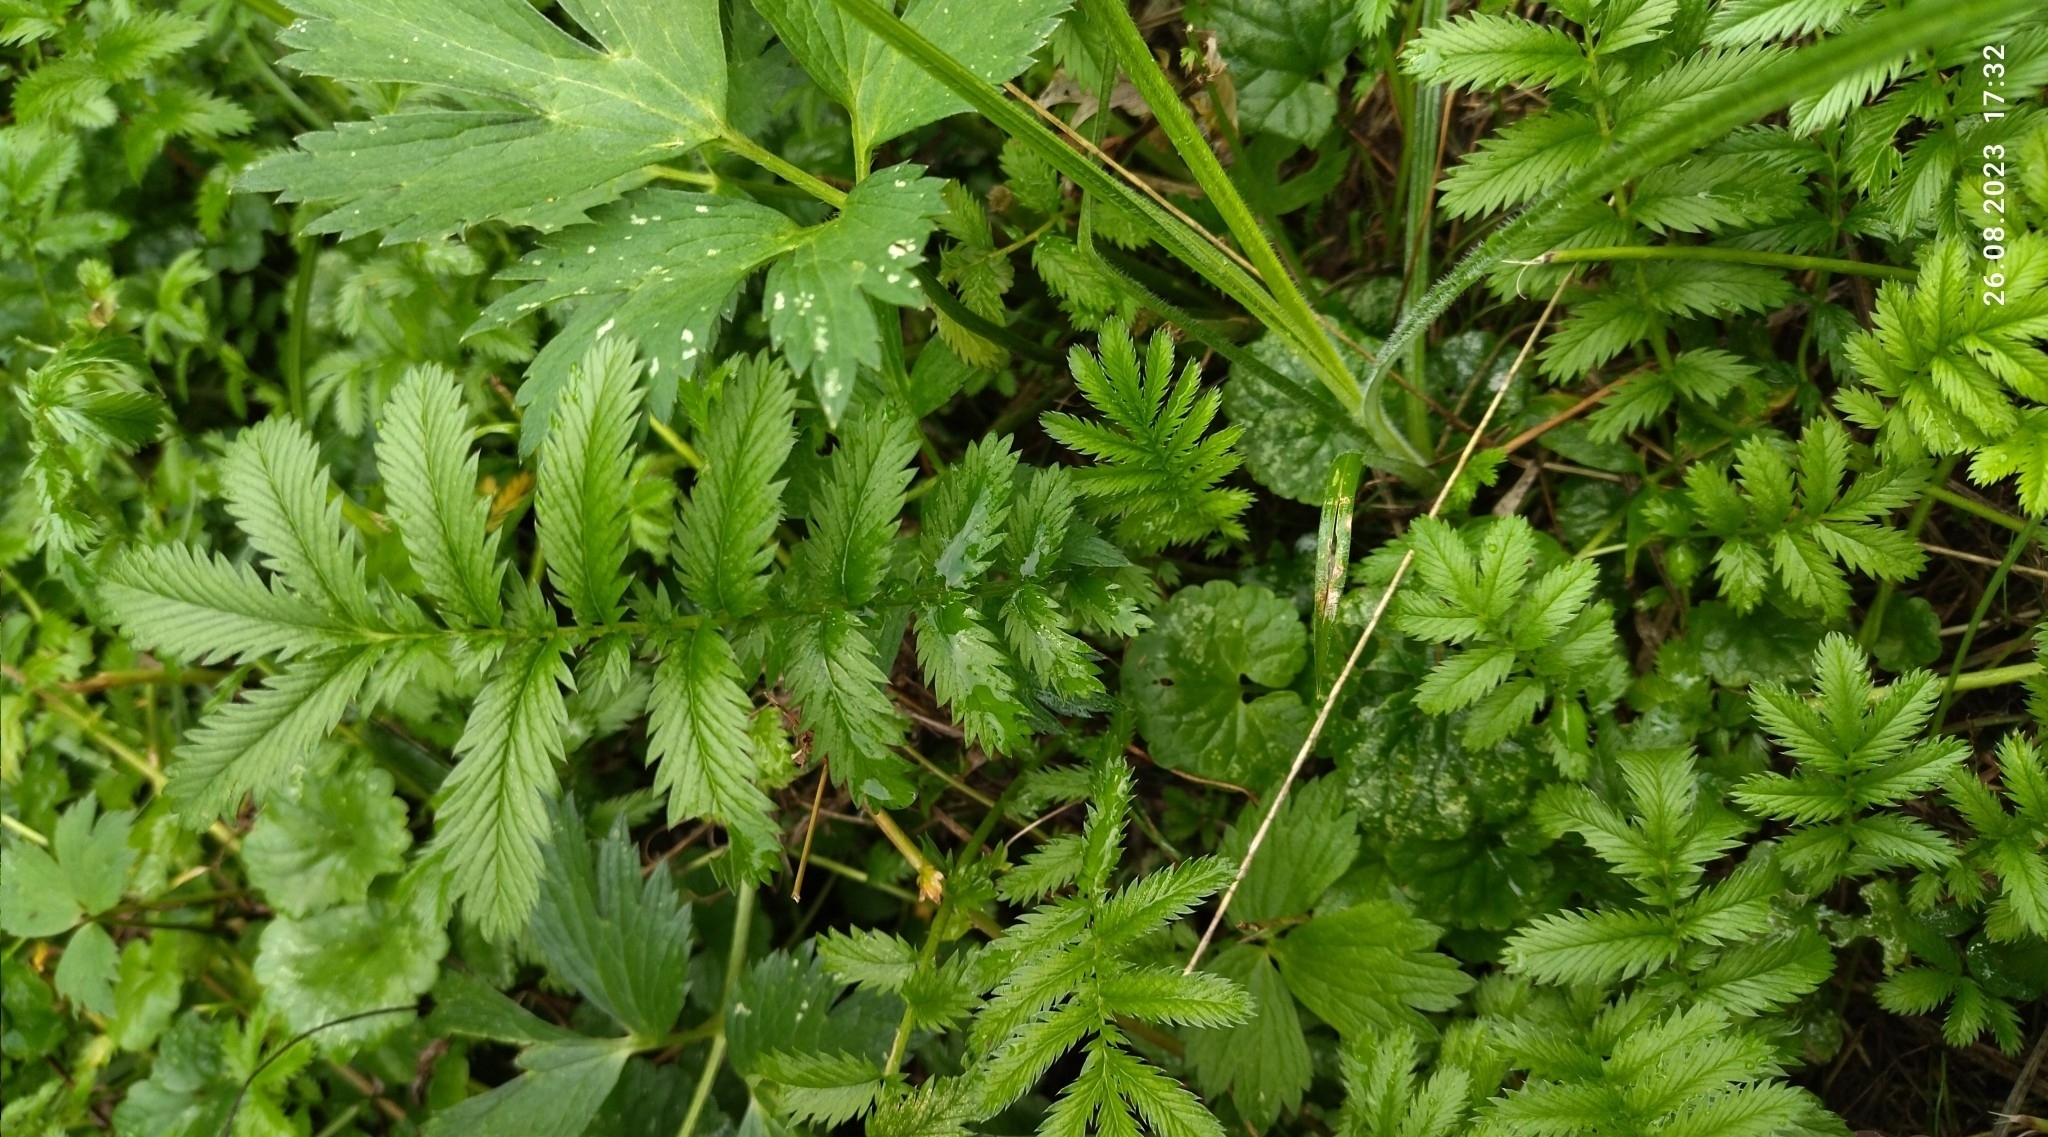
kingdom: Plantae
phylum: Tracheophyta
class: Magnoliopsida
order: Rosales
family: Rosaceae
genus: Argentina
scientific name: Argentina anserina
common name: Common silverweed
